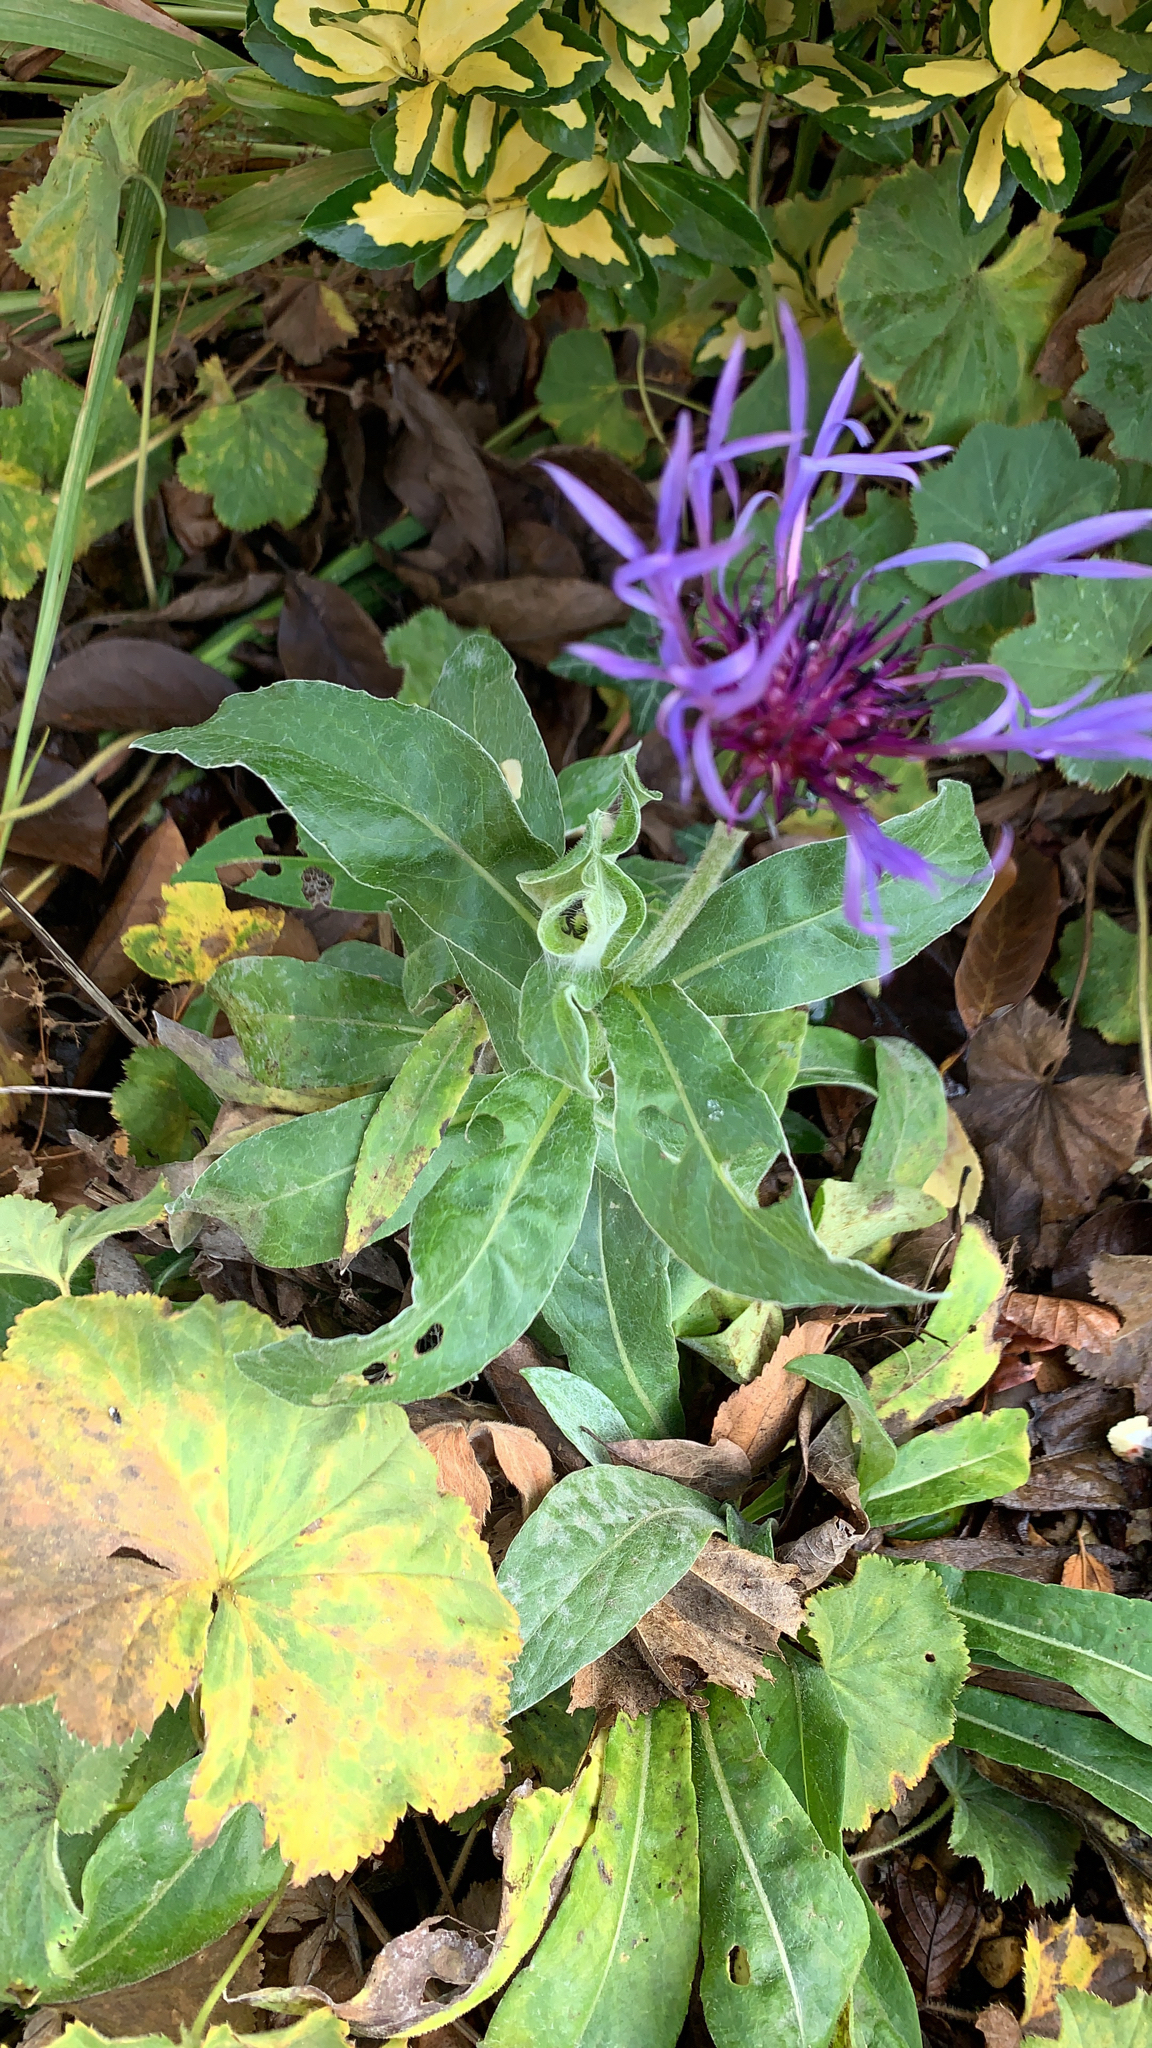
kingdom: Plantae
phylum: Tracheophyta
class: Magnoliopsida
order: Asterales
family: Asteraceae
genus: Centaurea
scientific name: Centaurea montana
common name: Perennial cornflower
